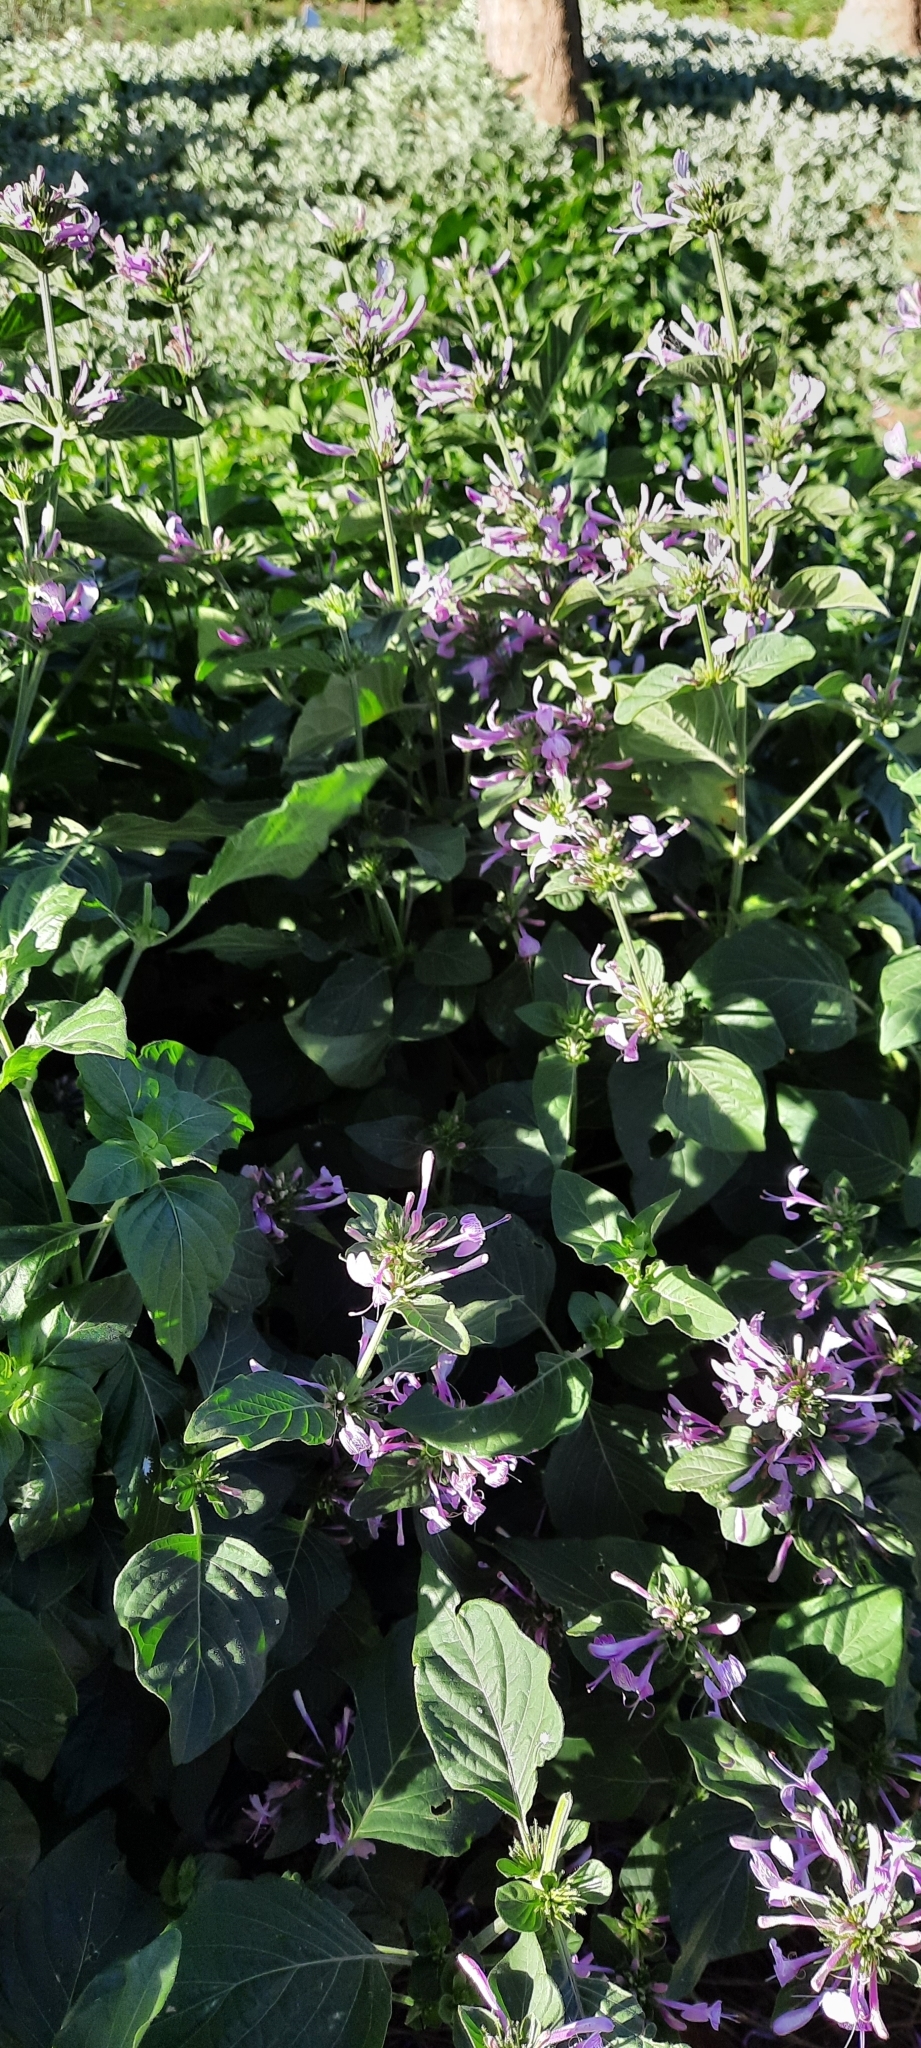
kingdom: Plantae
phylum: Tracheophyta
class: Magnoliopsida
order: Lamiales
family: Acanthaceae
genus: Hypoestes
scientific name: Hypoestes aristata
